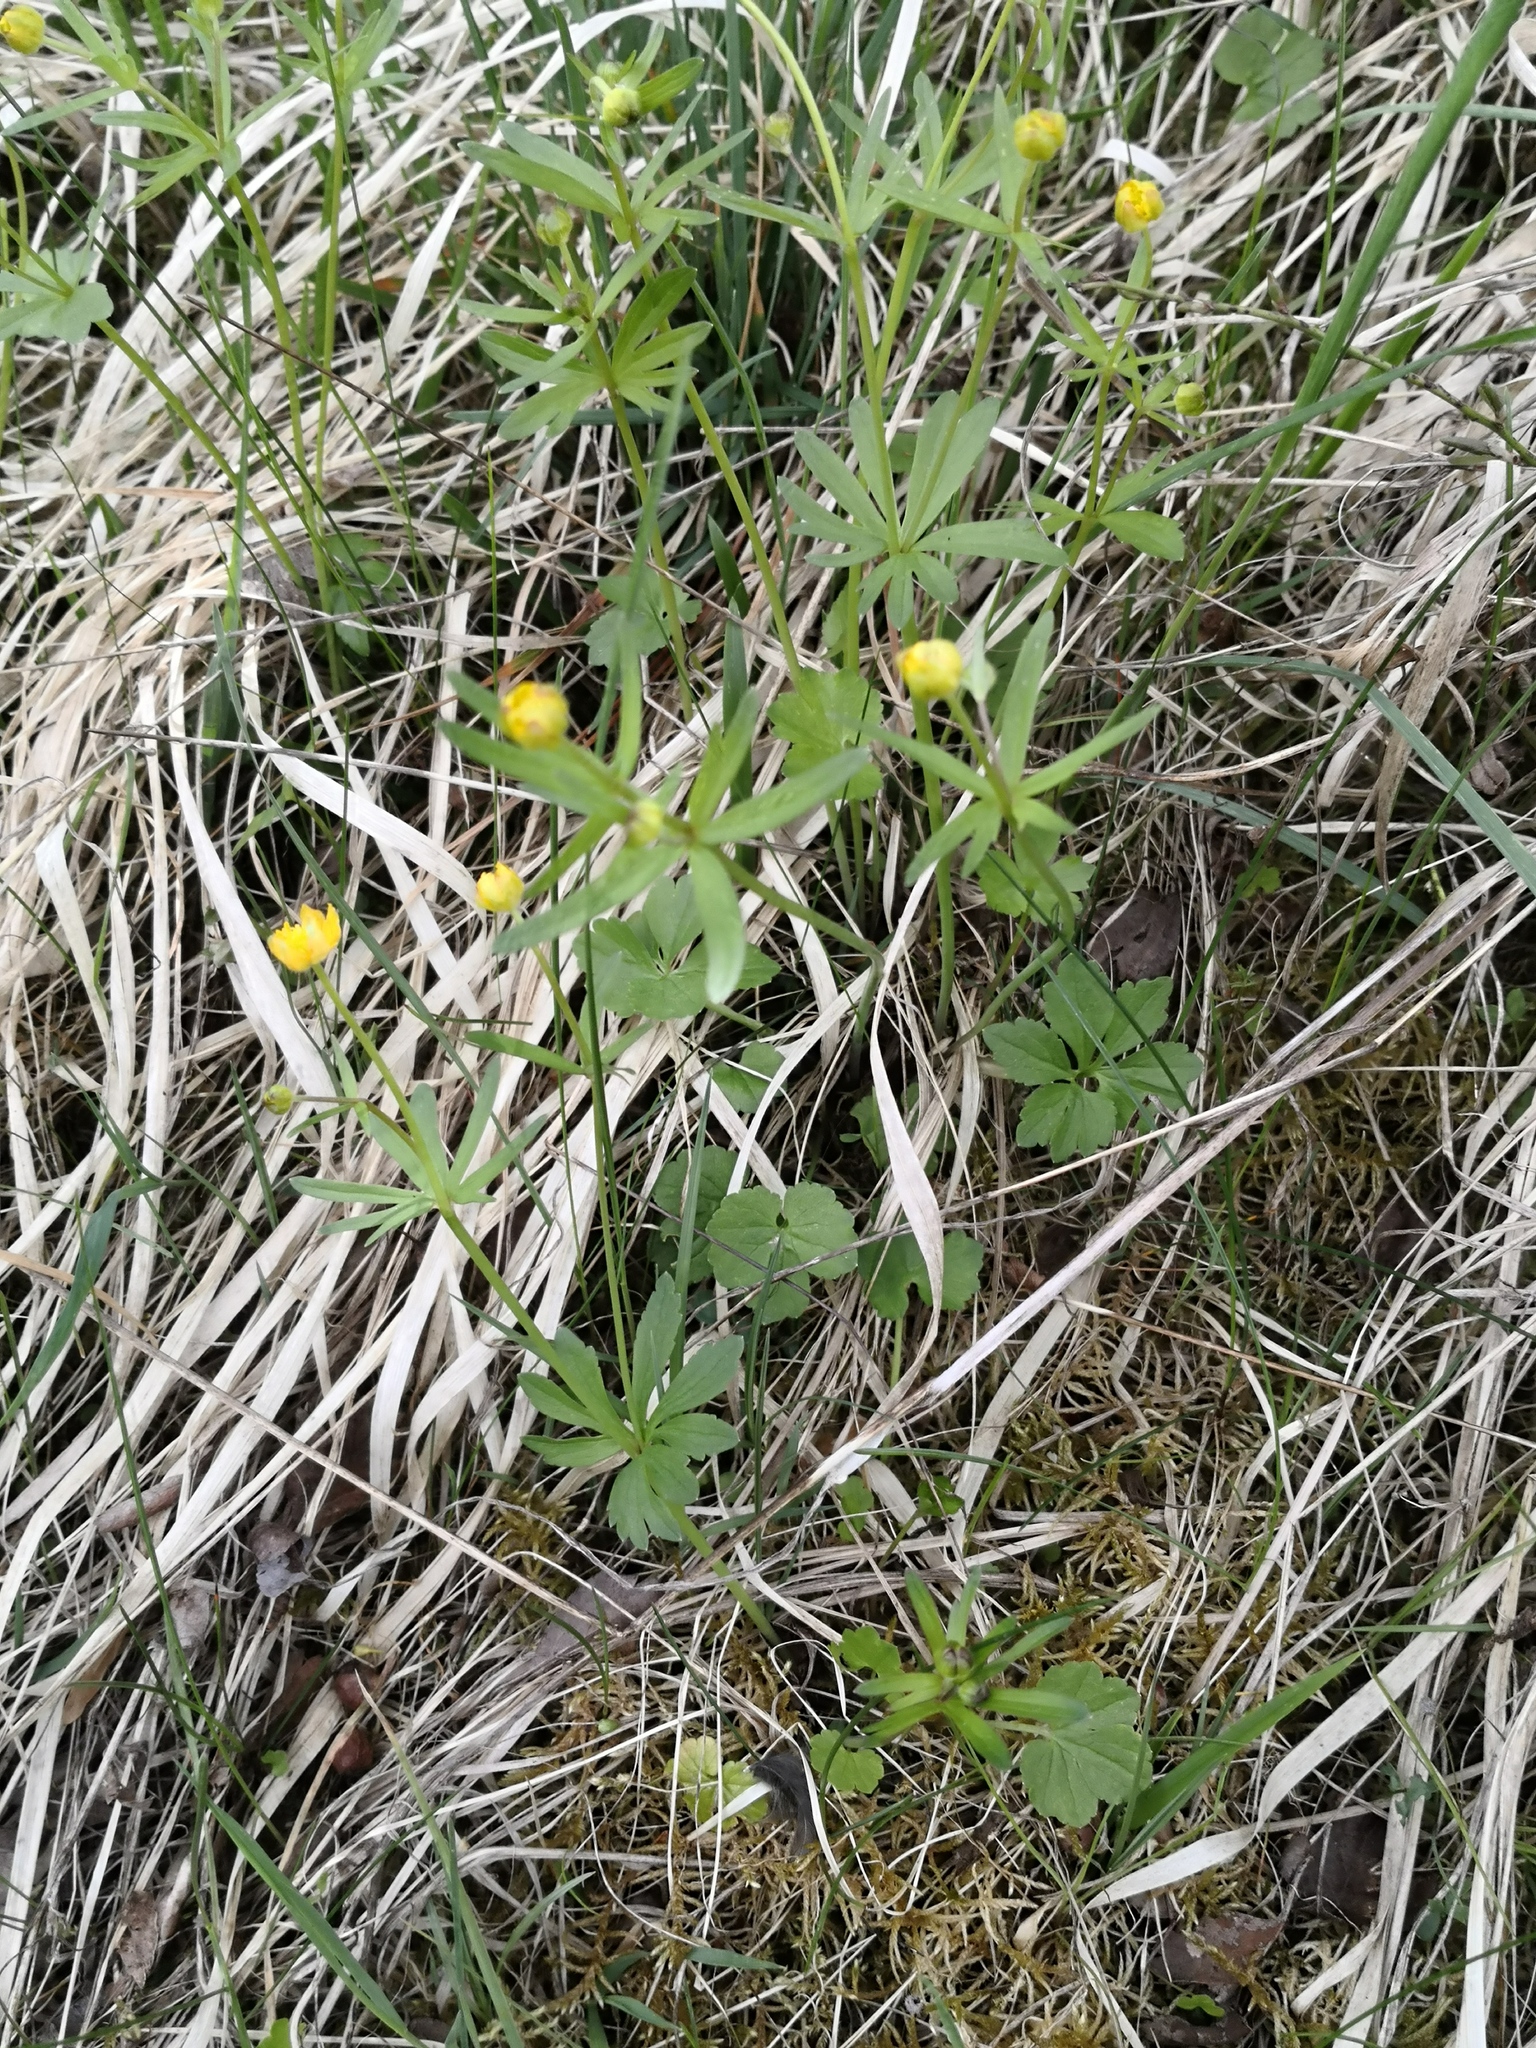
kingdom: Plantae
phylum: Tracheophyta
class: Magnoliopsida
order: Ranunculales
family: Ranunculaceae
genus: Ranunculus
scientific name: Ranunculus auricomus
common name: Goldilocks buttercup
